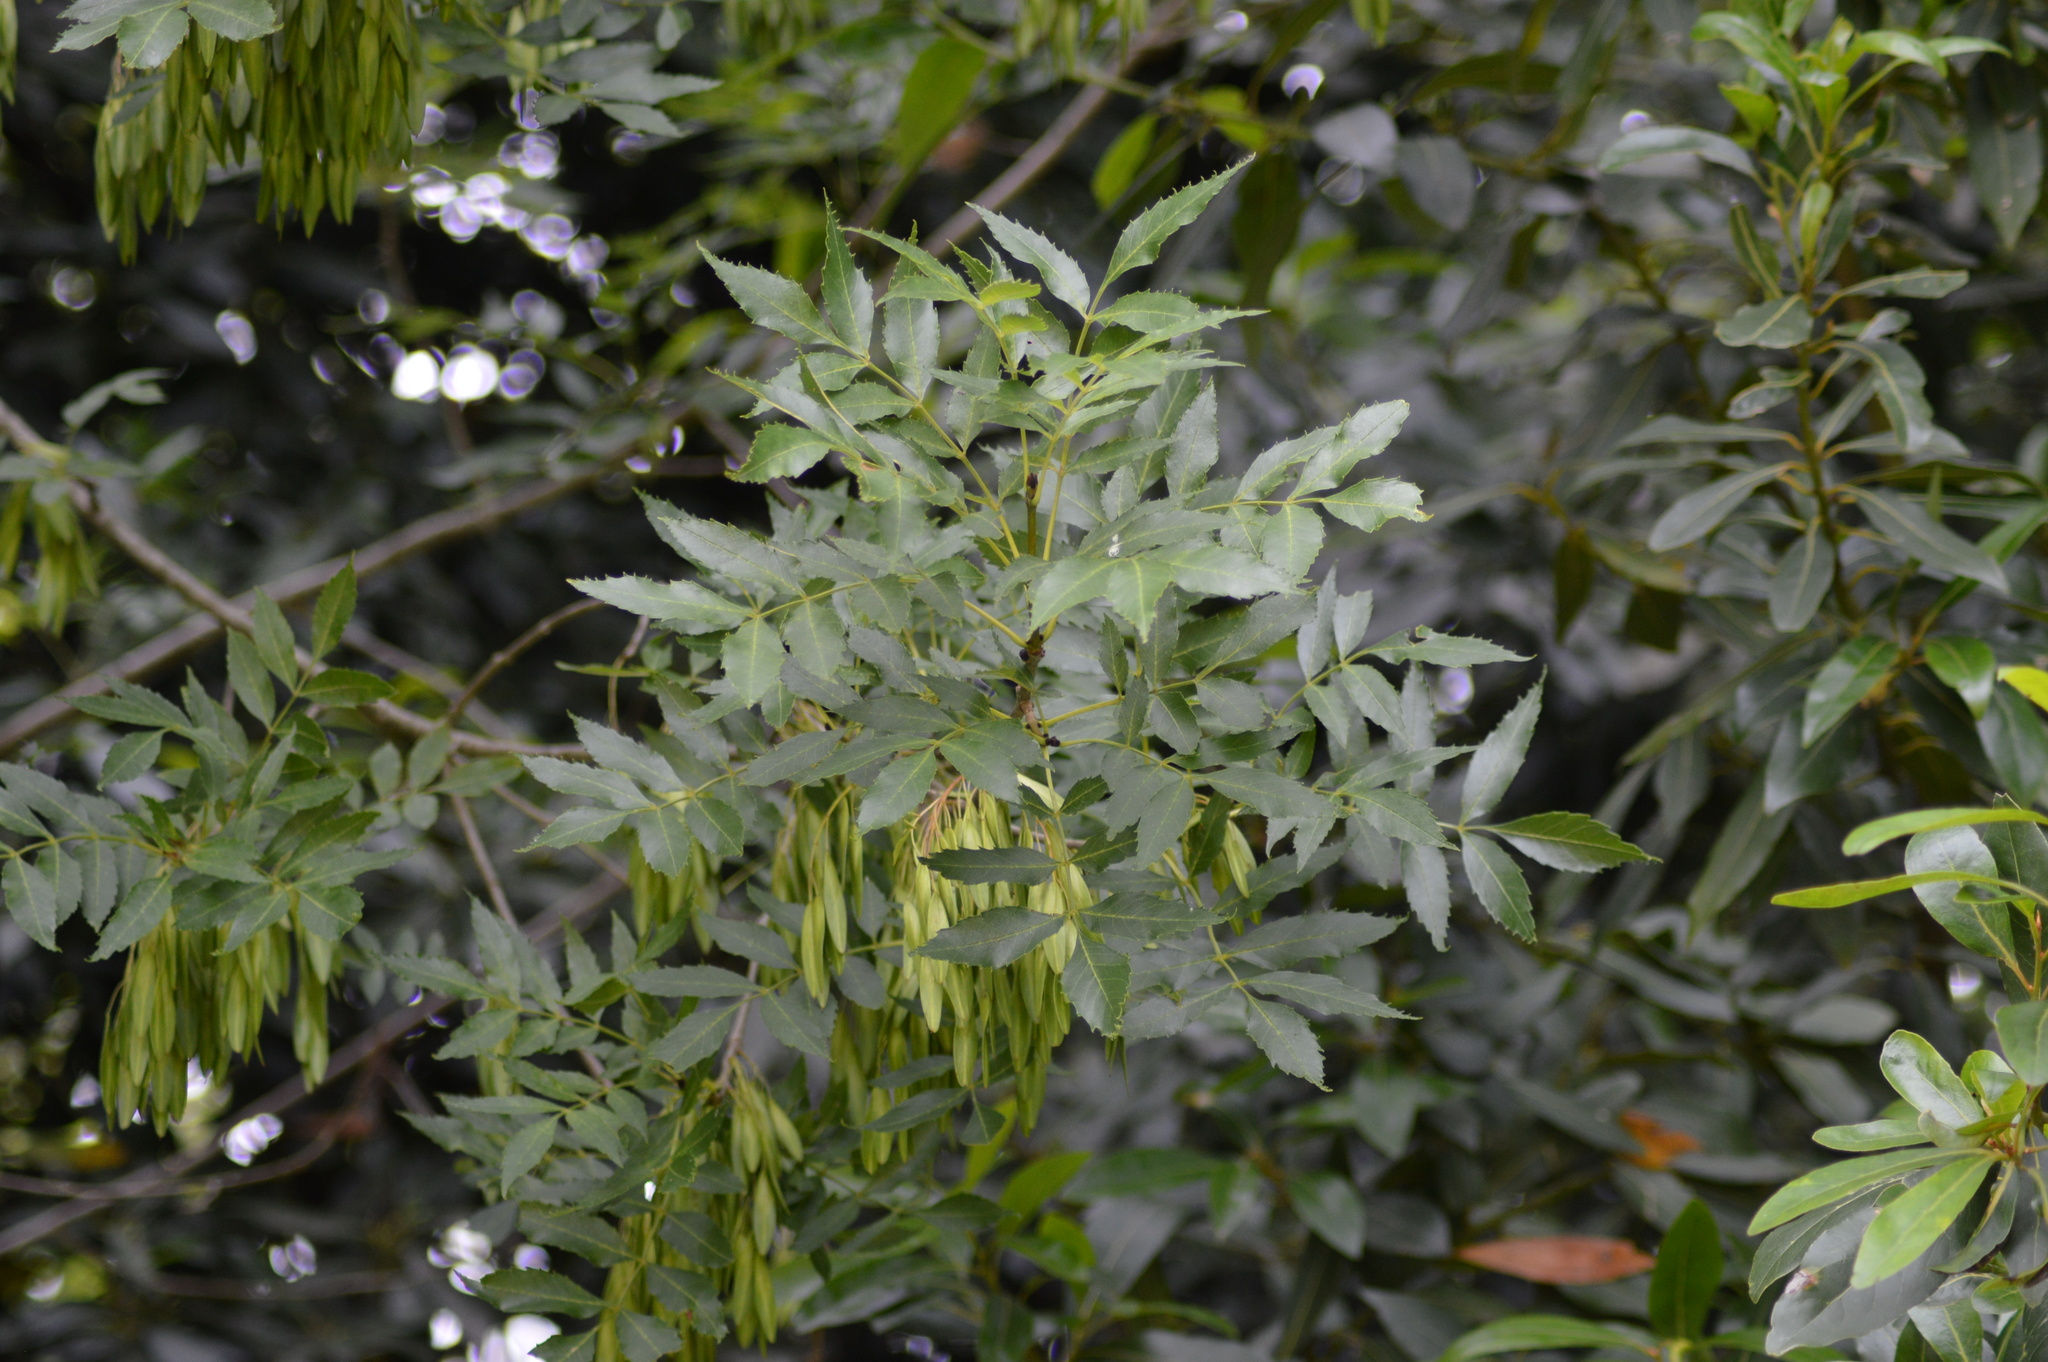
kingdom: Plantae
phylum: Tracheophyta
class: Magnoliopsida
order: Lamiales
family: Oleaceae
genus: Fraxinus
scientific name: Fraxinus angustifolia
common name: Narrow-leafed ash
